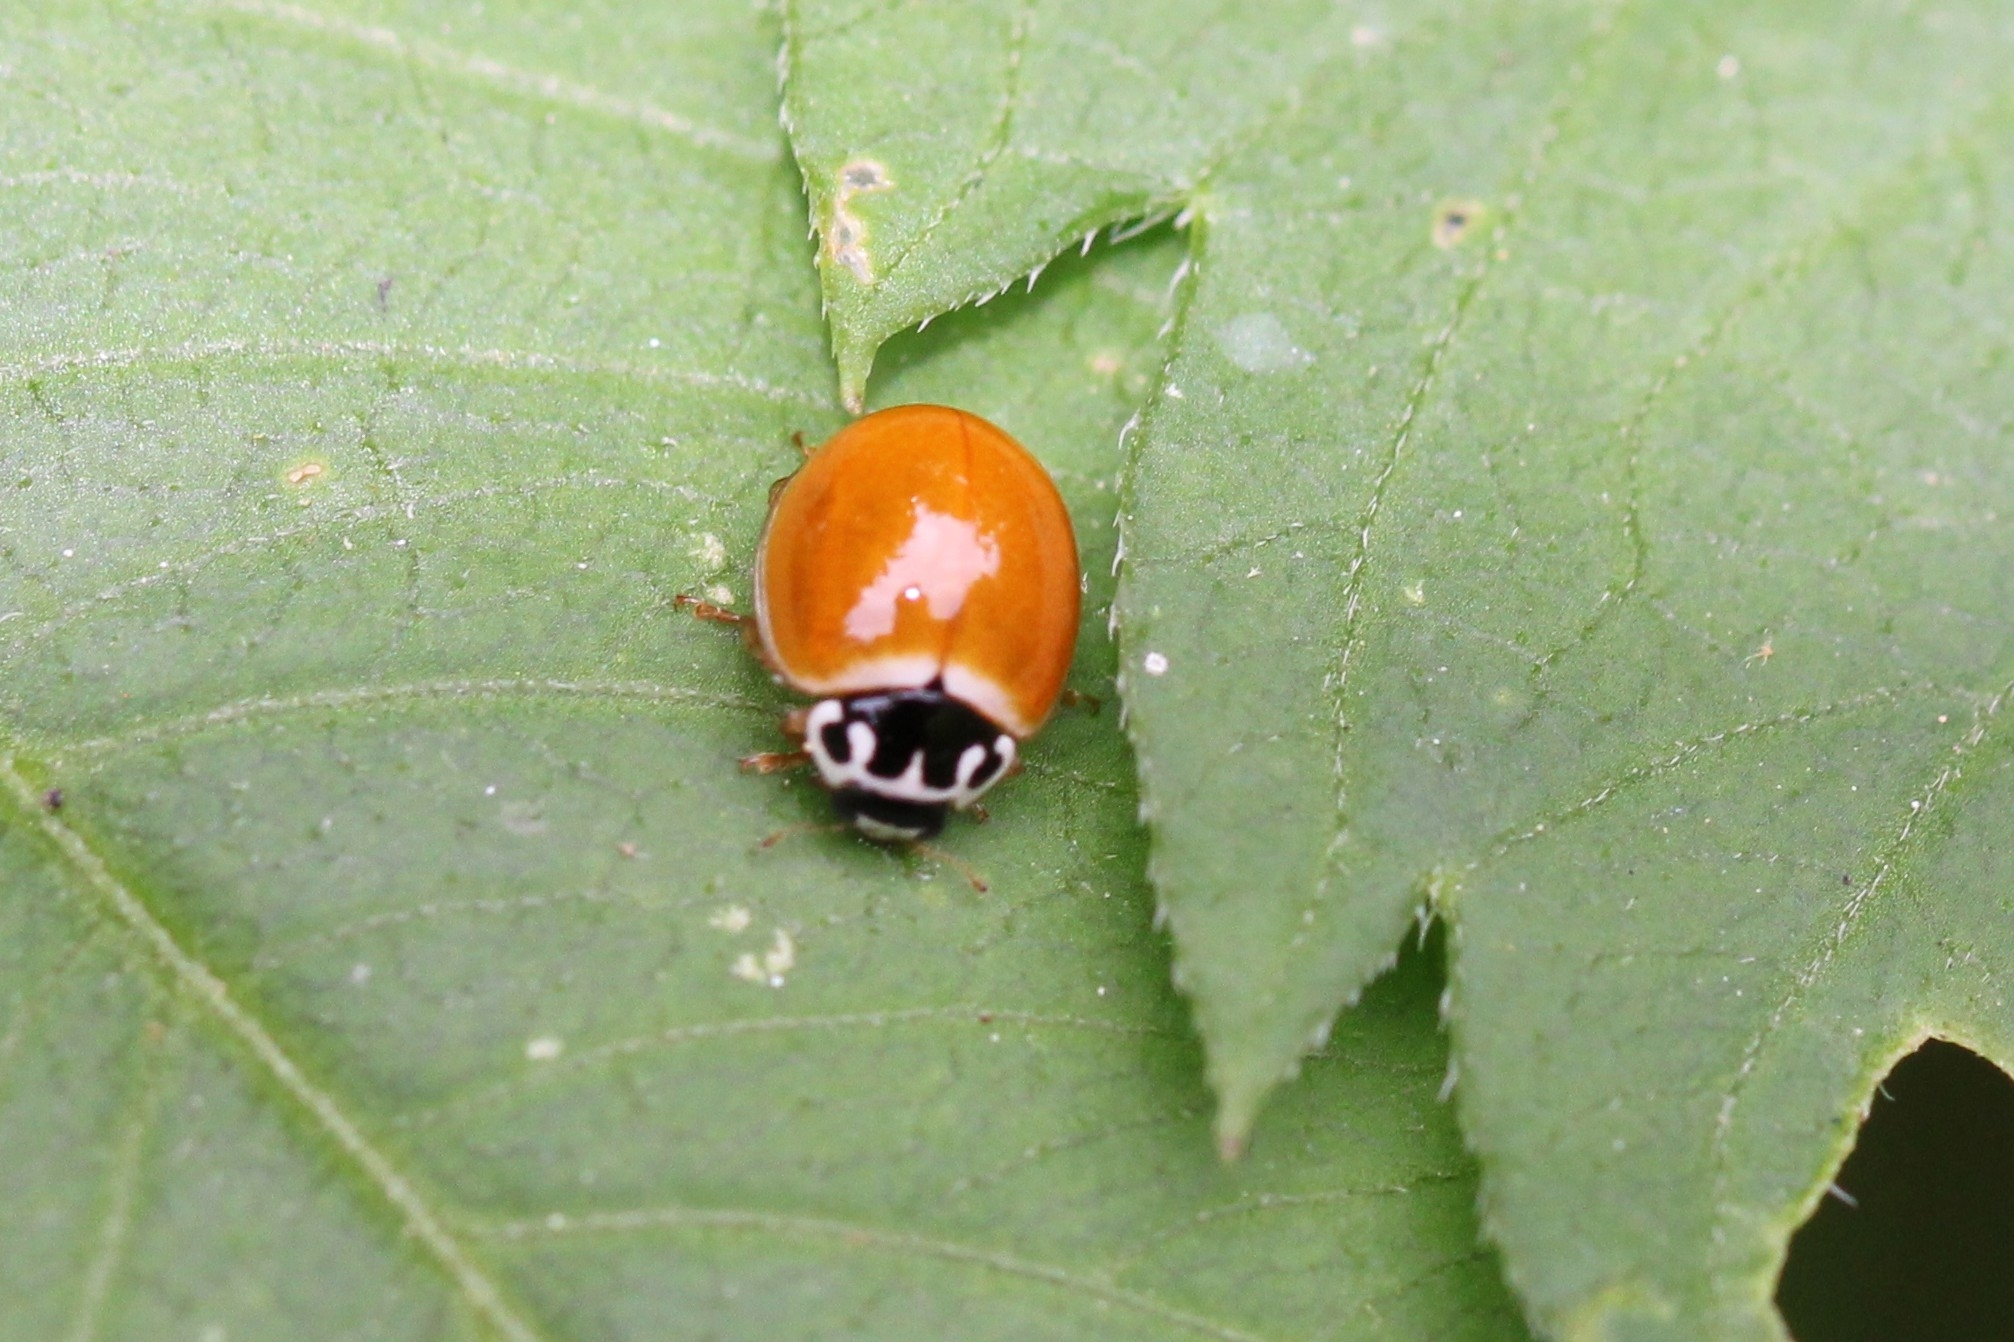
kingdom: Animalia
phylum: Arthropoda
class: Insecta
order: Coleoptera
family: Coccinellidae
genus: Cycloneda
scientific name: Cycloneda munda
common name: Polished lady beetle
